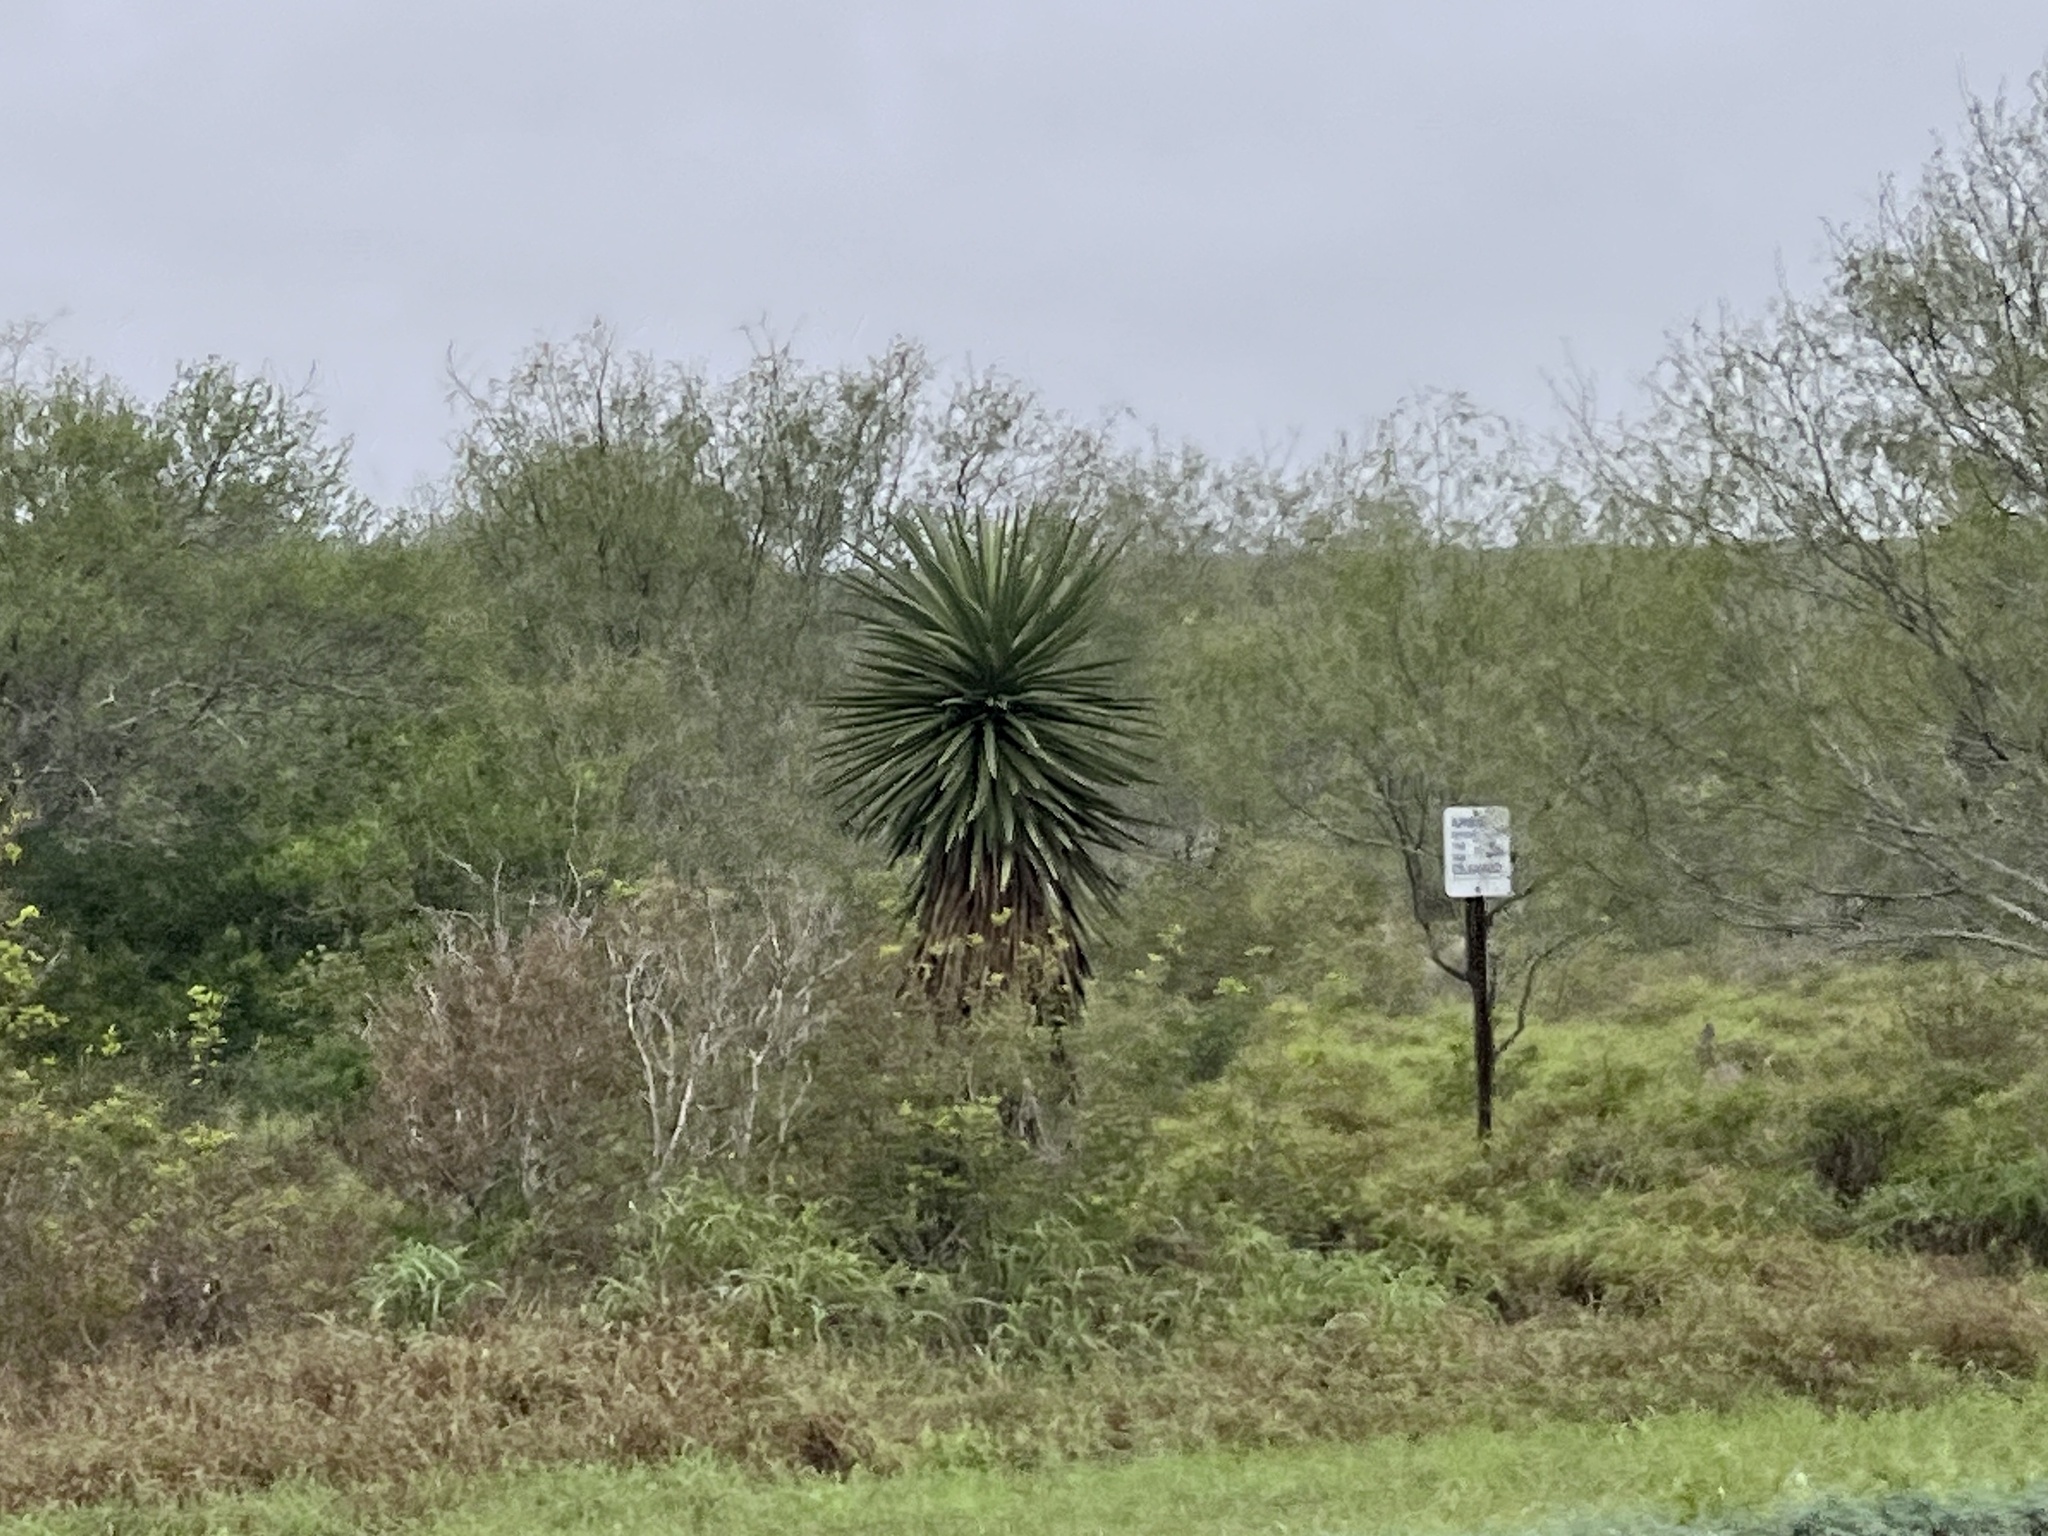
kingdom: Plantae
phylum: Tracheophyta
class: Liliopsida
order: Asparagales
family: Asparagaceae
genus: Yucca
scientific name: Yucca treculiana
